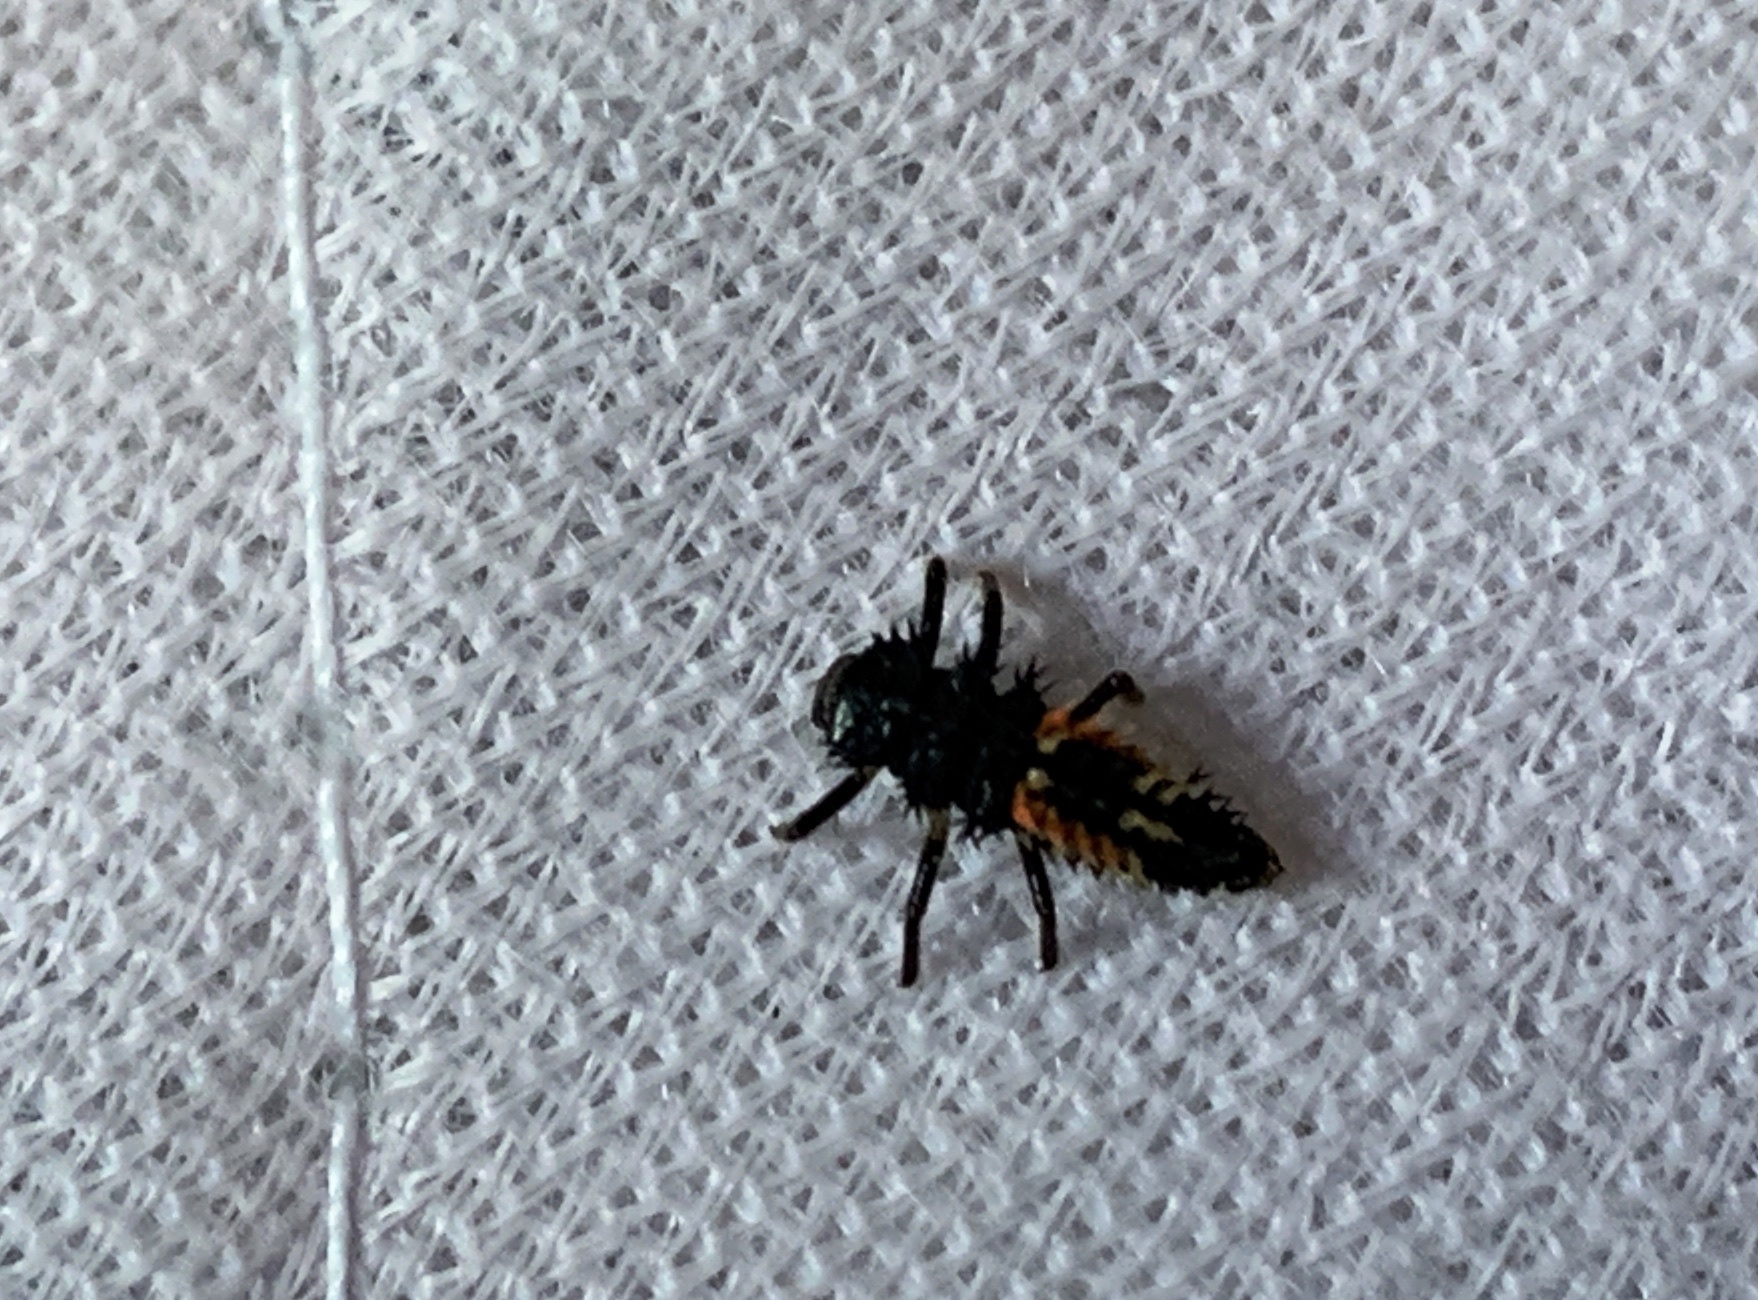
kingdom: Animalia
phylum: Arthropoda
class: Insecta
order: Coleoptera
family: Coccinellidae
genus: Harmonia
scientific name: Harmonia axyridis
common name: Harlequin ladybird
